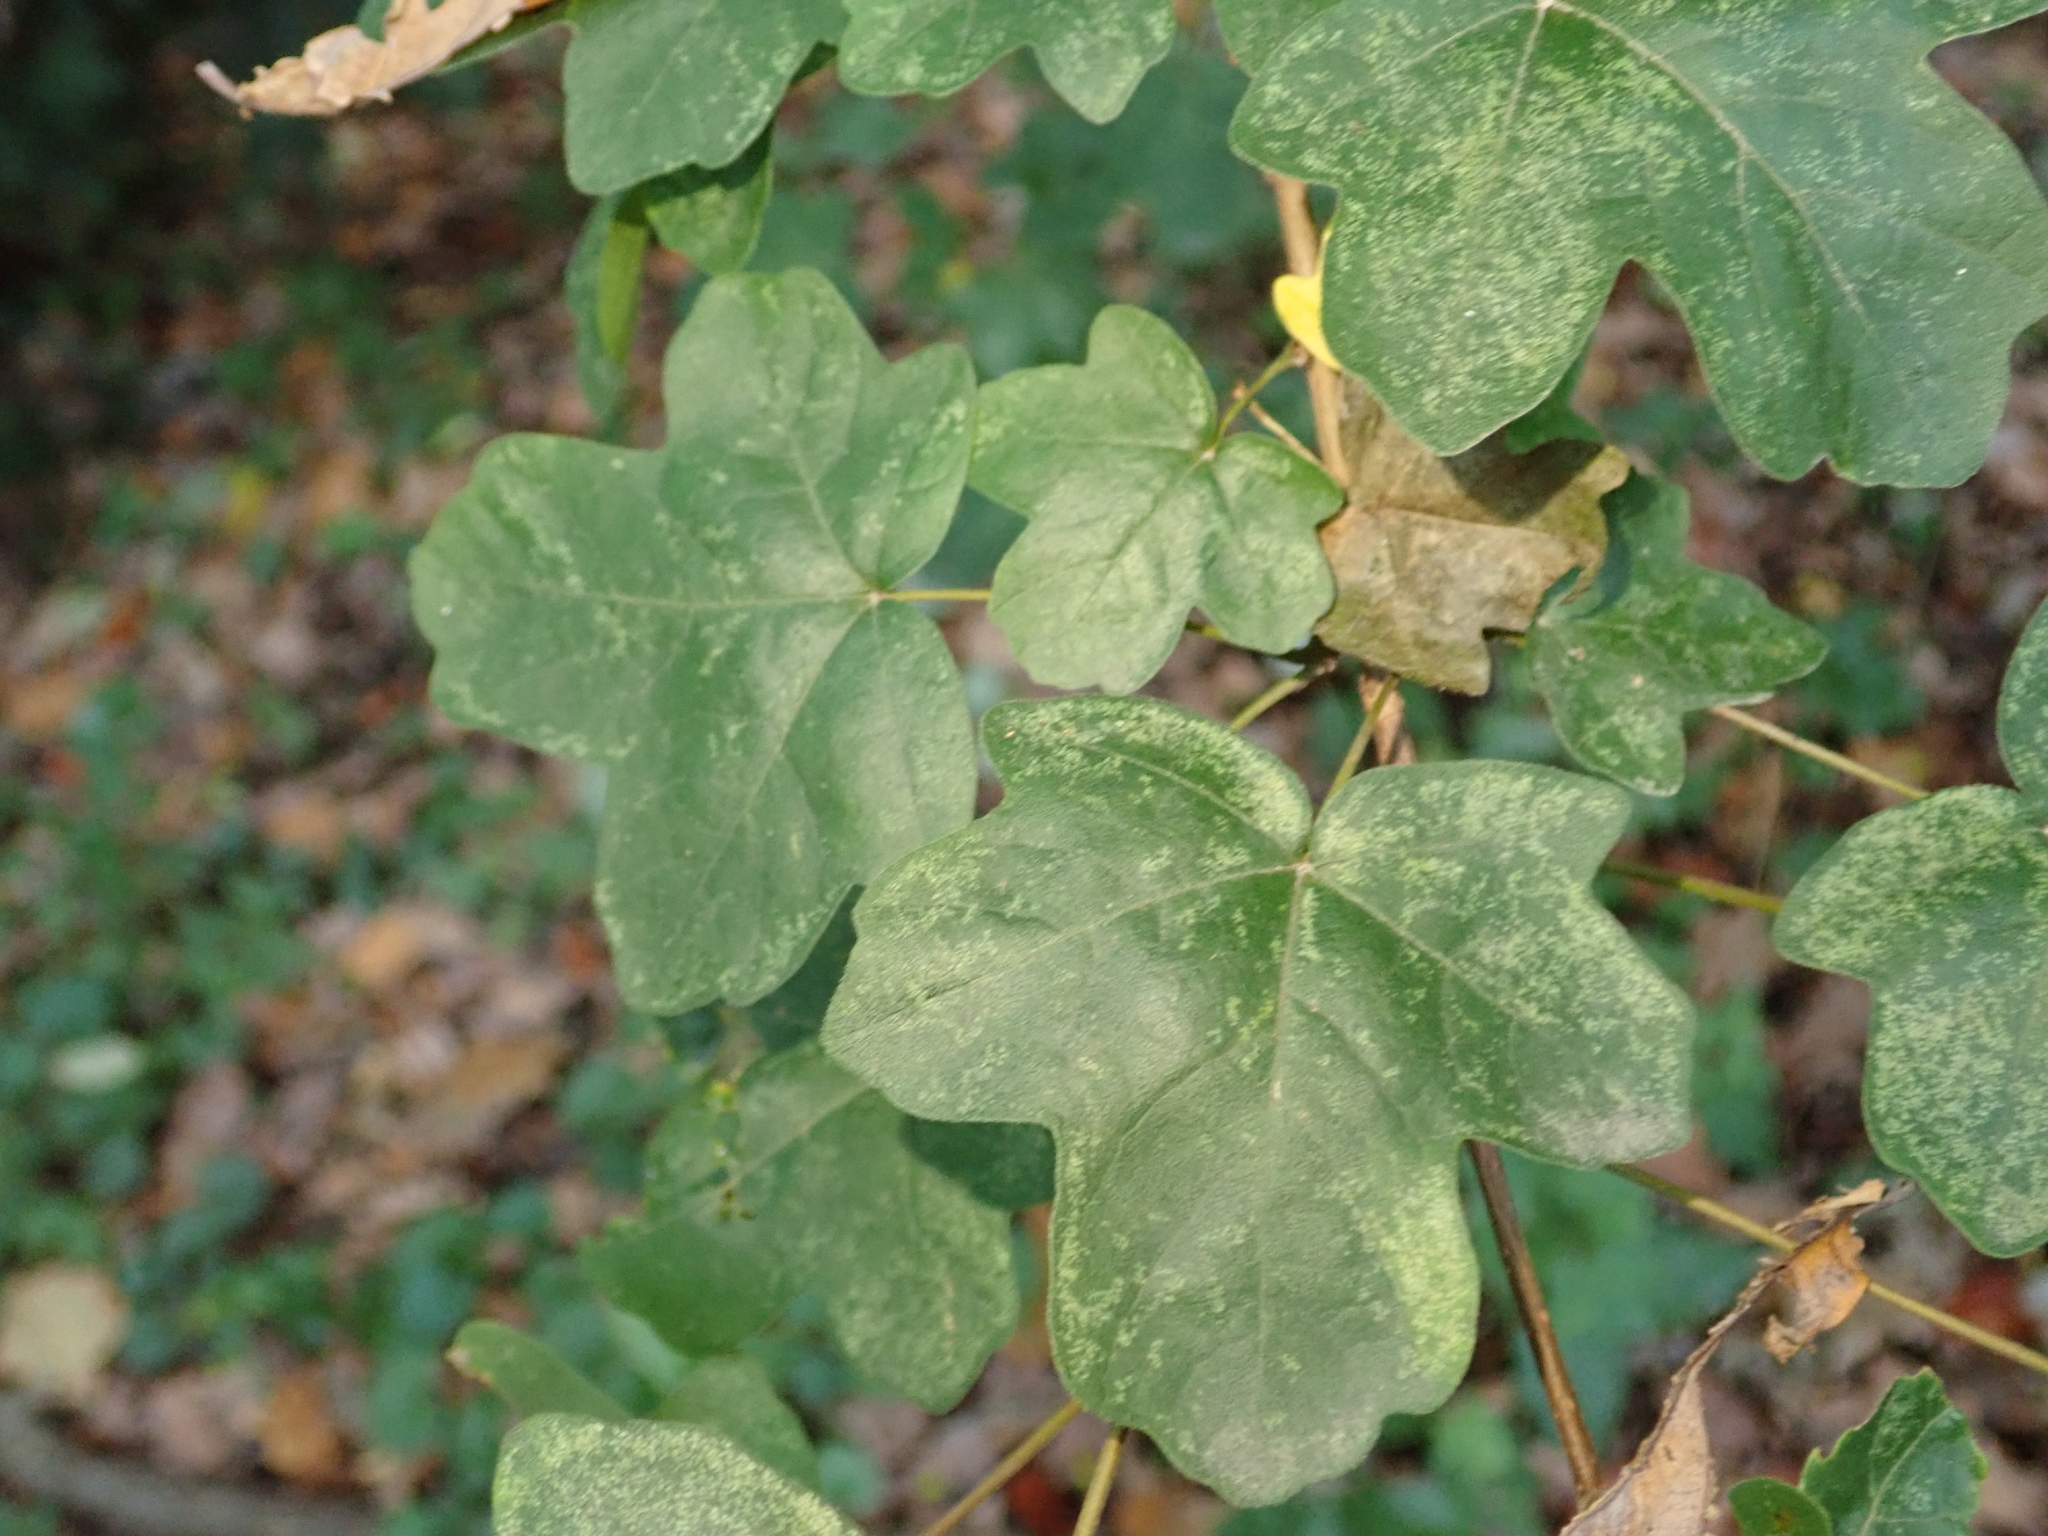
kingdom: Plantae
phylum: Tracheophyta
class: Magnoliopsida
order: Sapindales
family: Sapindaceae
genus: Acer
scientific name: Acer campestre
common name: Field maple
